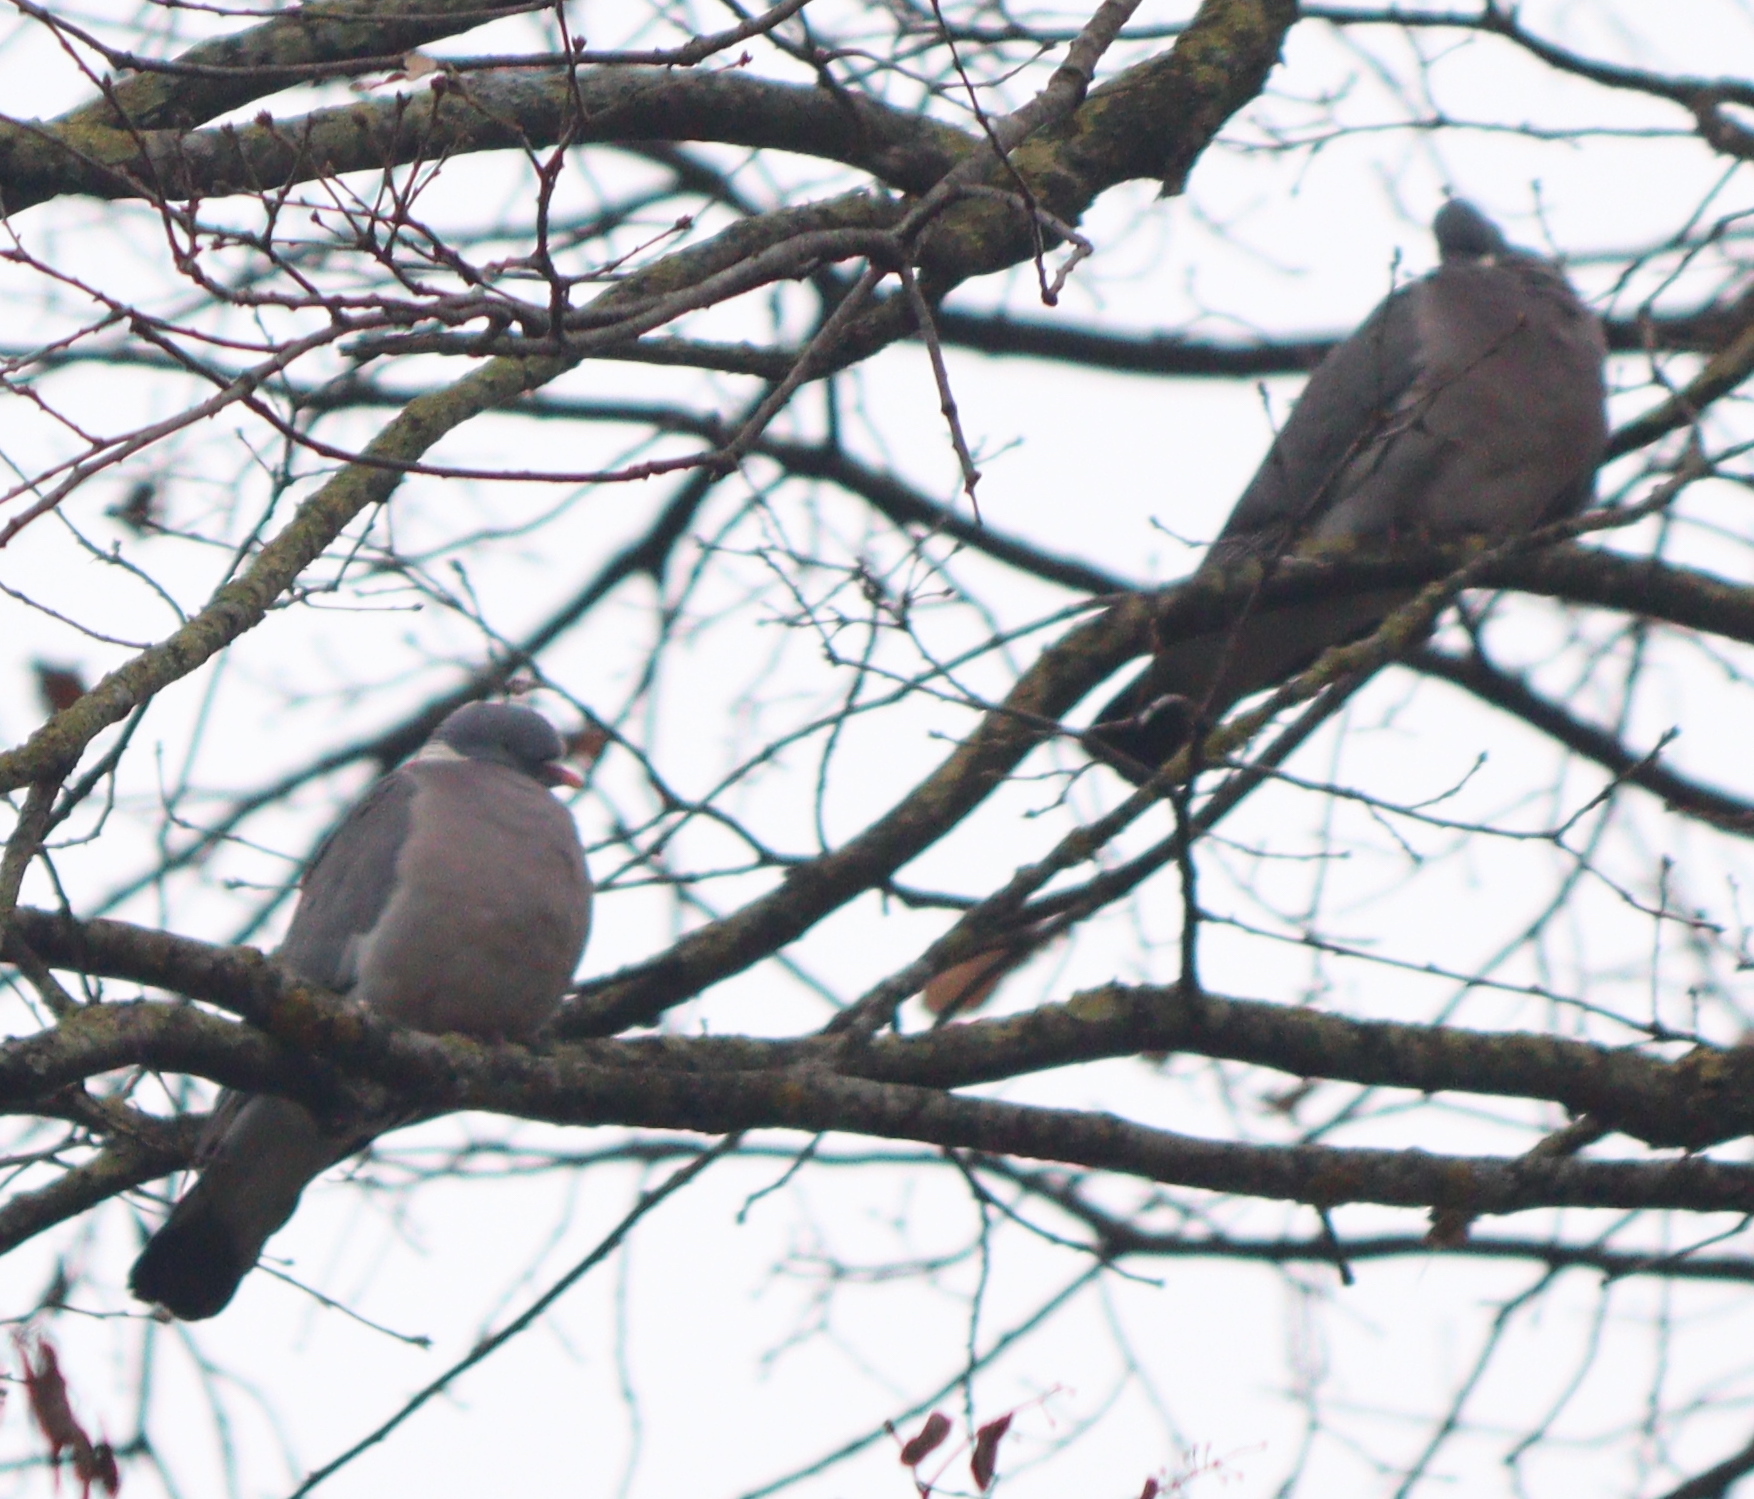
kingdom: Animalia
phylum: Chordata
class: Aves
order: Columbiformes
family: Columbidae
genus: Columba
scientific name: Columba palumbus
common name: Common wood pigeon
